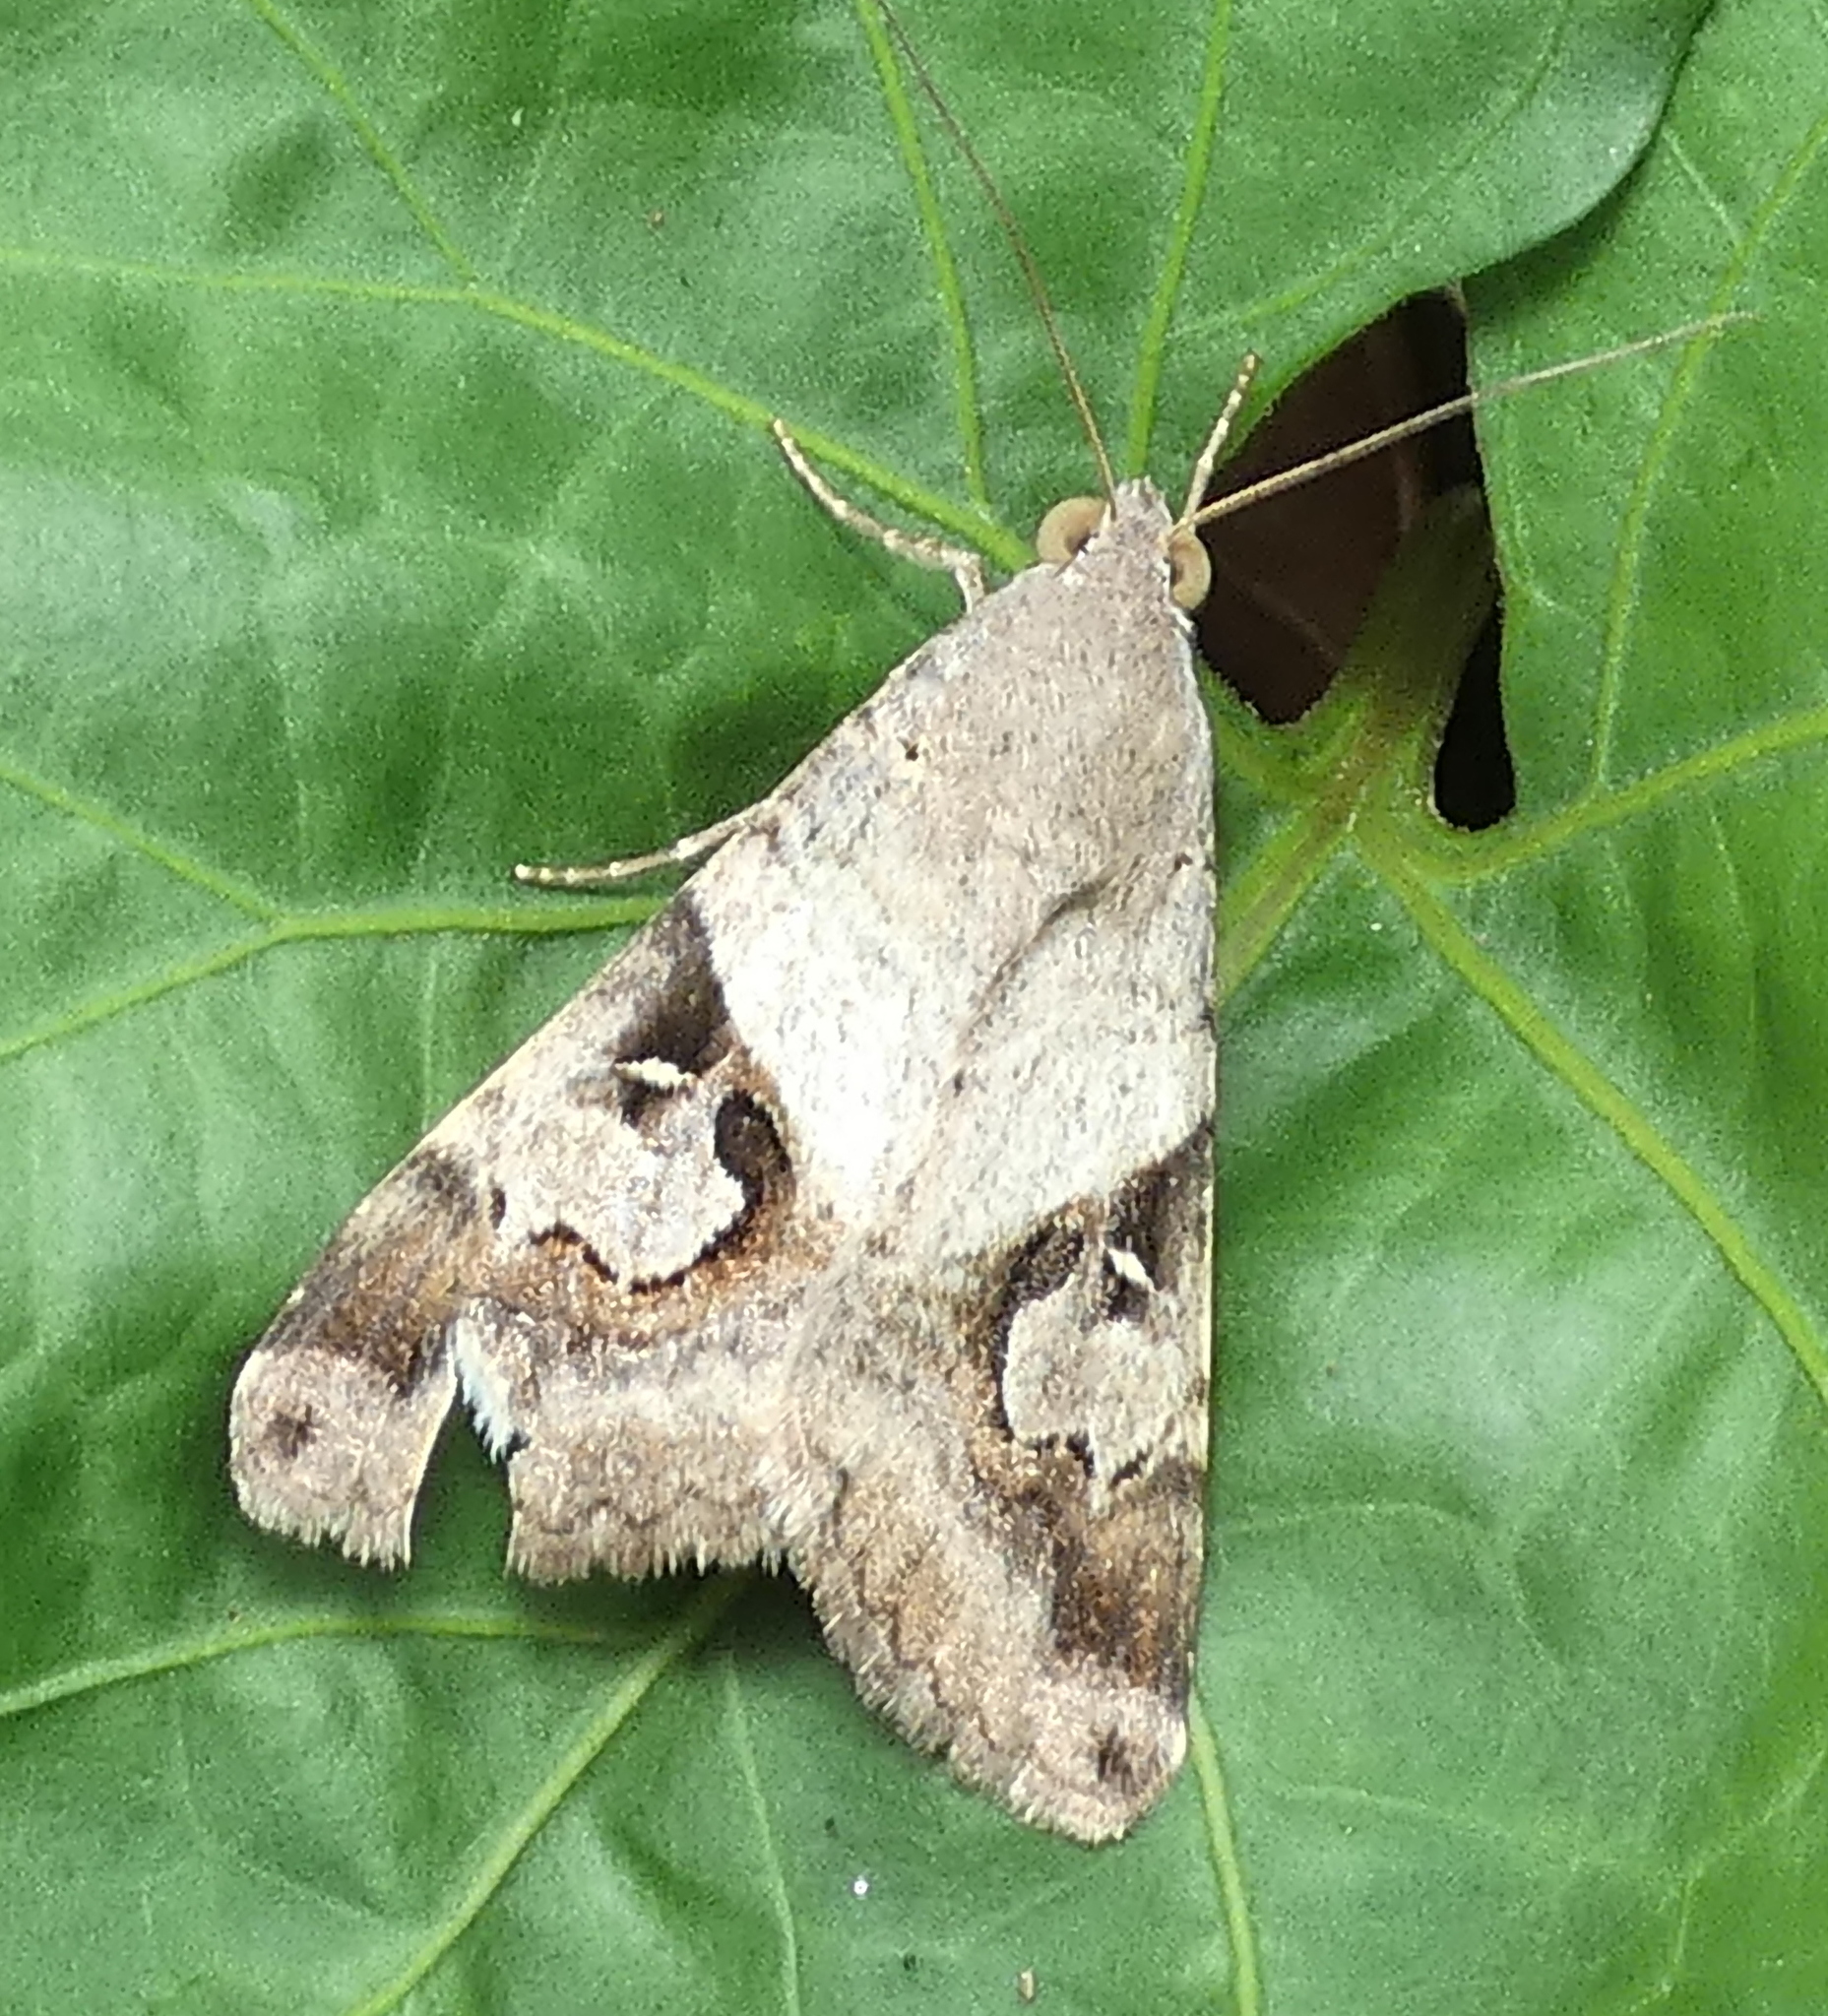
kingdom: Animalia
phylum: Arthropoda
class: Insecta
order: Lepidoptera
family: Erebidae
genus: Melipotis
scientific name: Melipotis ochrodes
